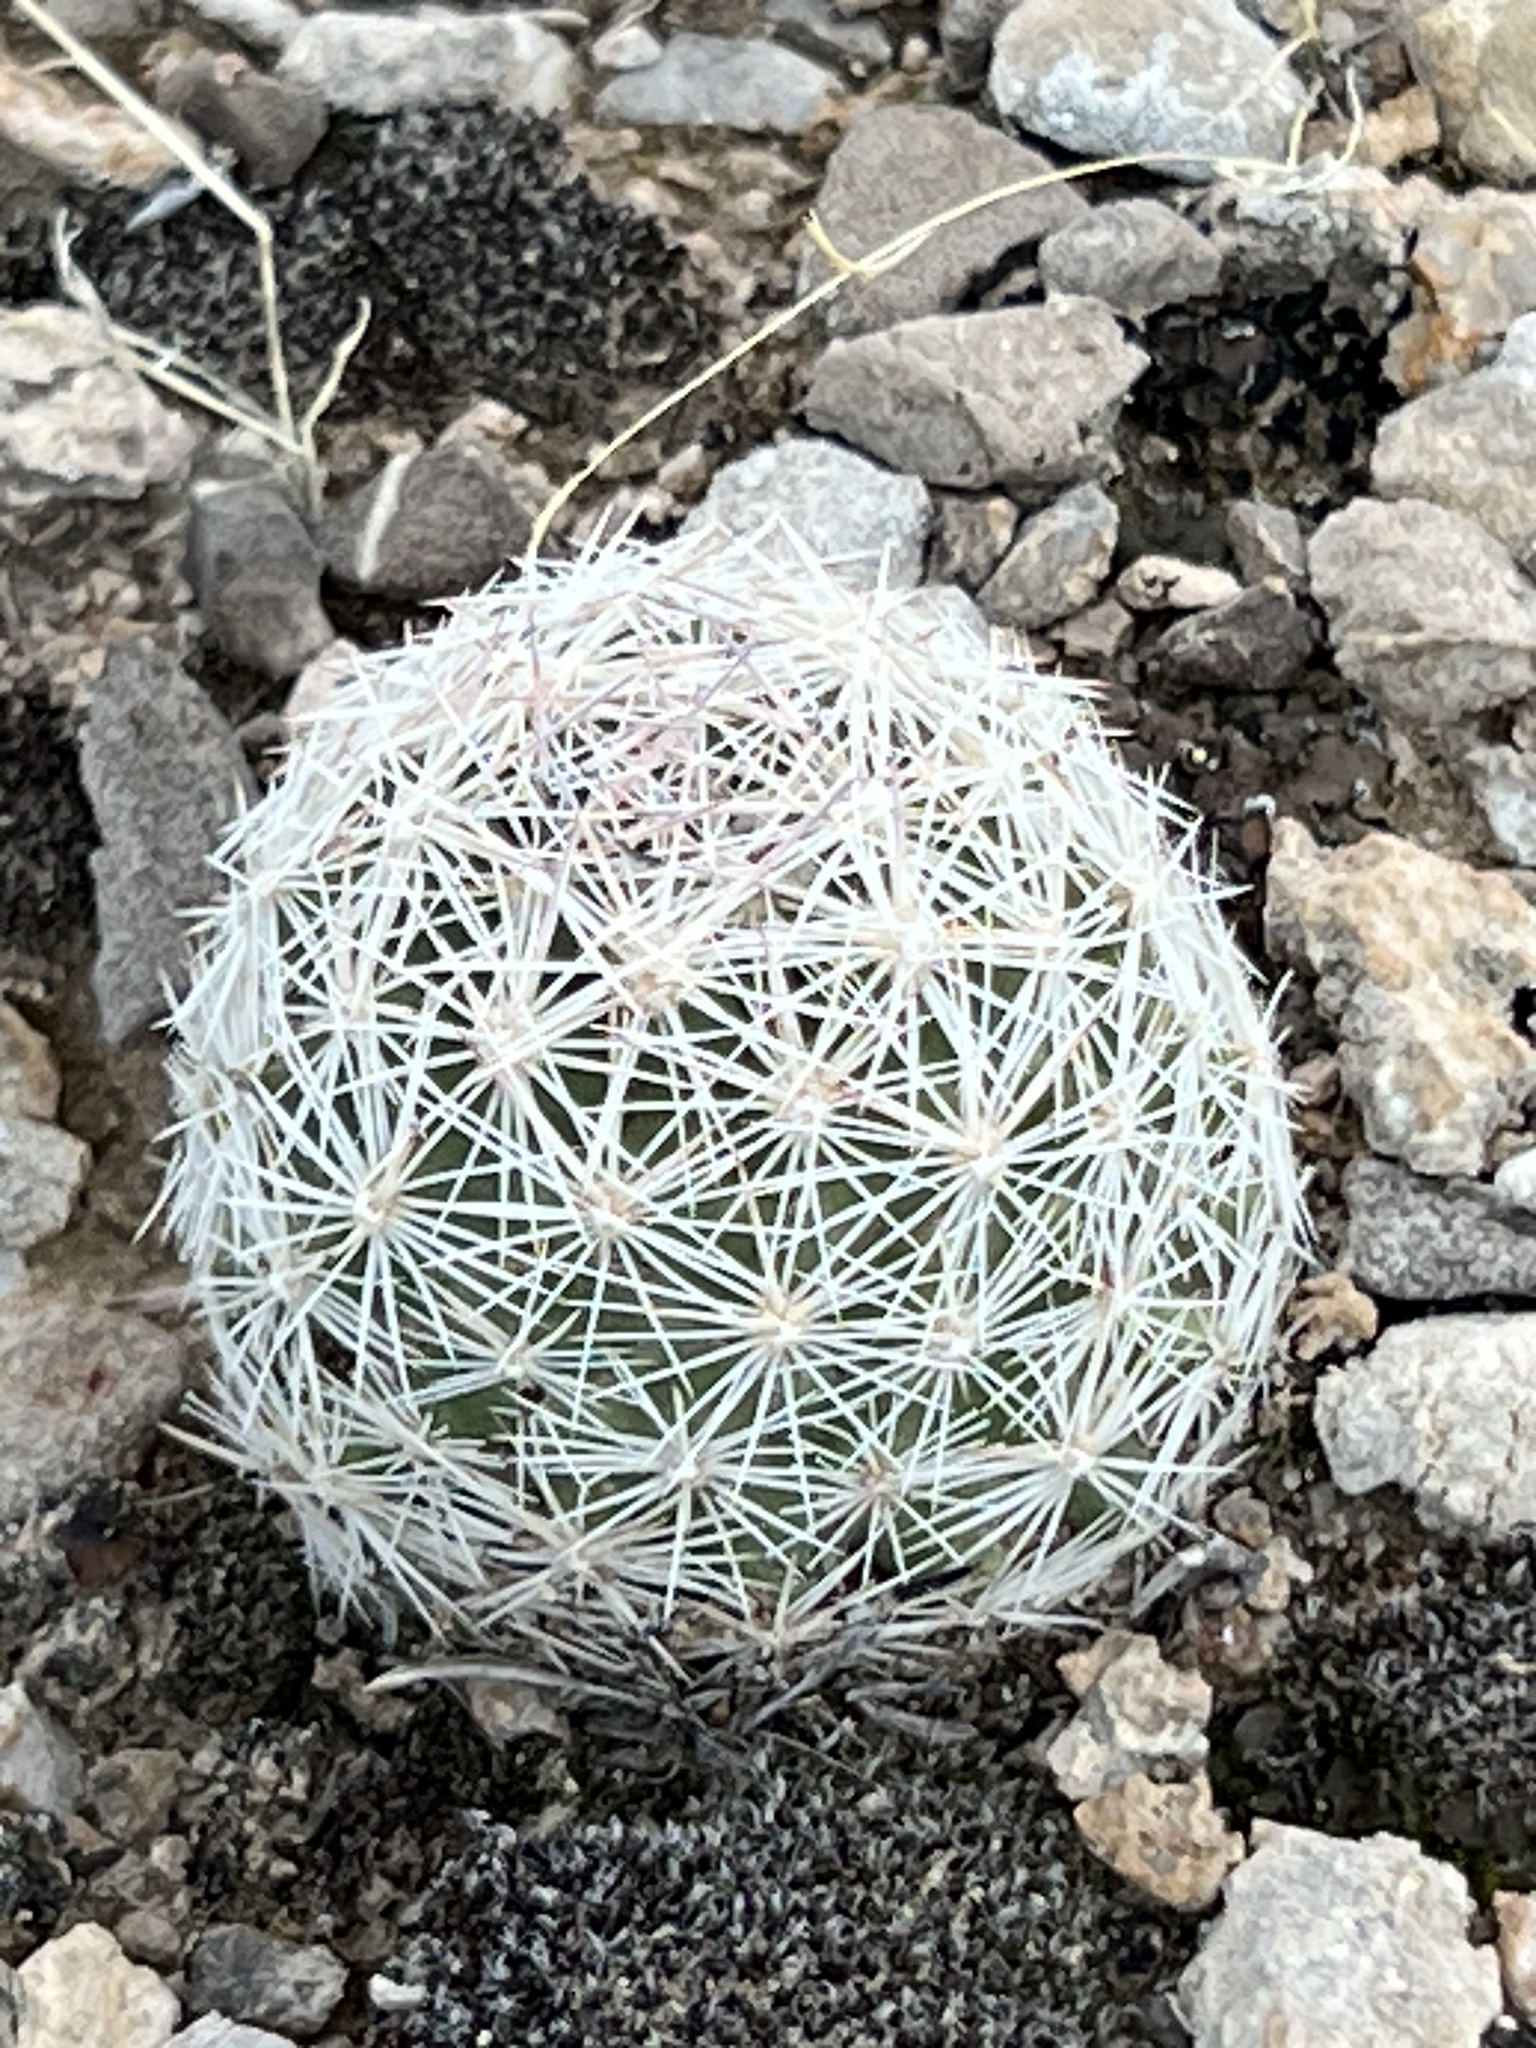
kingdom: Plantae
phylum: Tracheophyta
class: Magnoliopsida
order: Caryophyllales
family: Cactaceae
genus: Pelecyphora
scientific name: Pelecyphora dasyacantha
